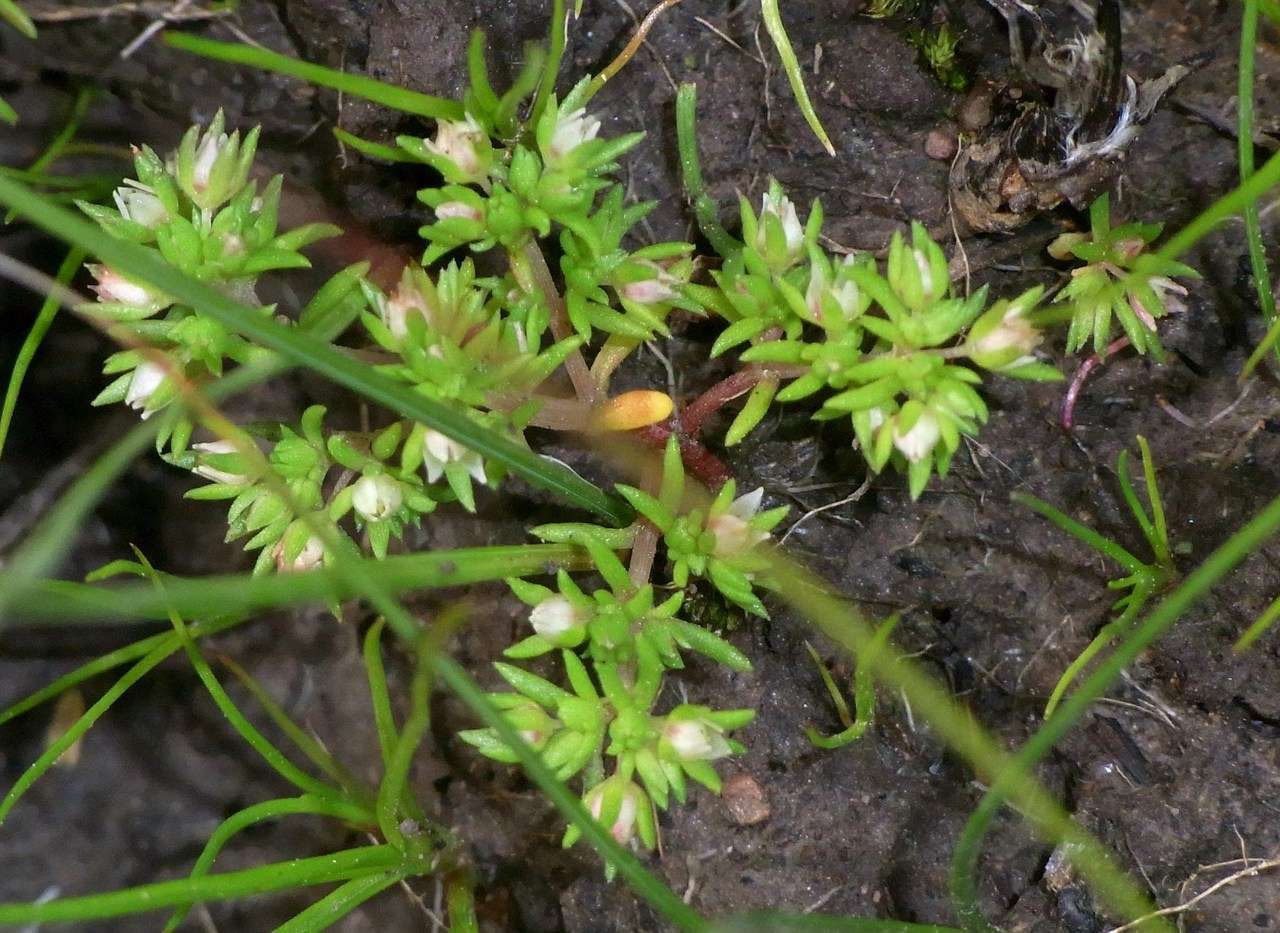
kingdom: Plantae
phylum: Tracheophyta
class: Magnoliopsida
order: Saxifragales
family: Crassulaceae
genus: Crassula
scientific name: Crassula decumbens
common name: Scilly pigmyweed
